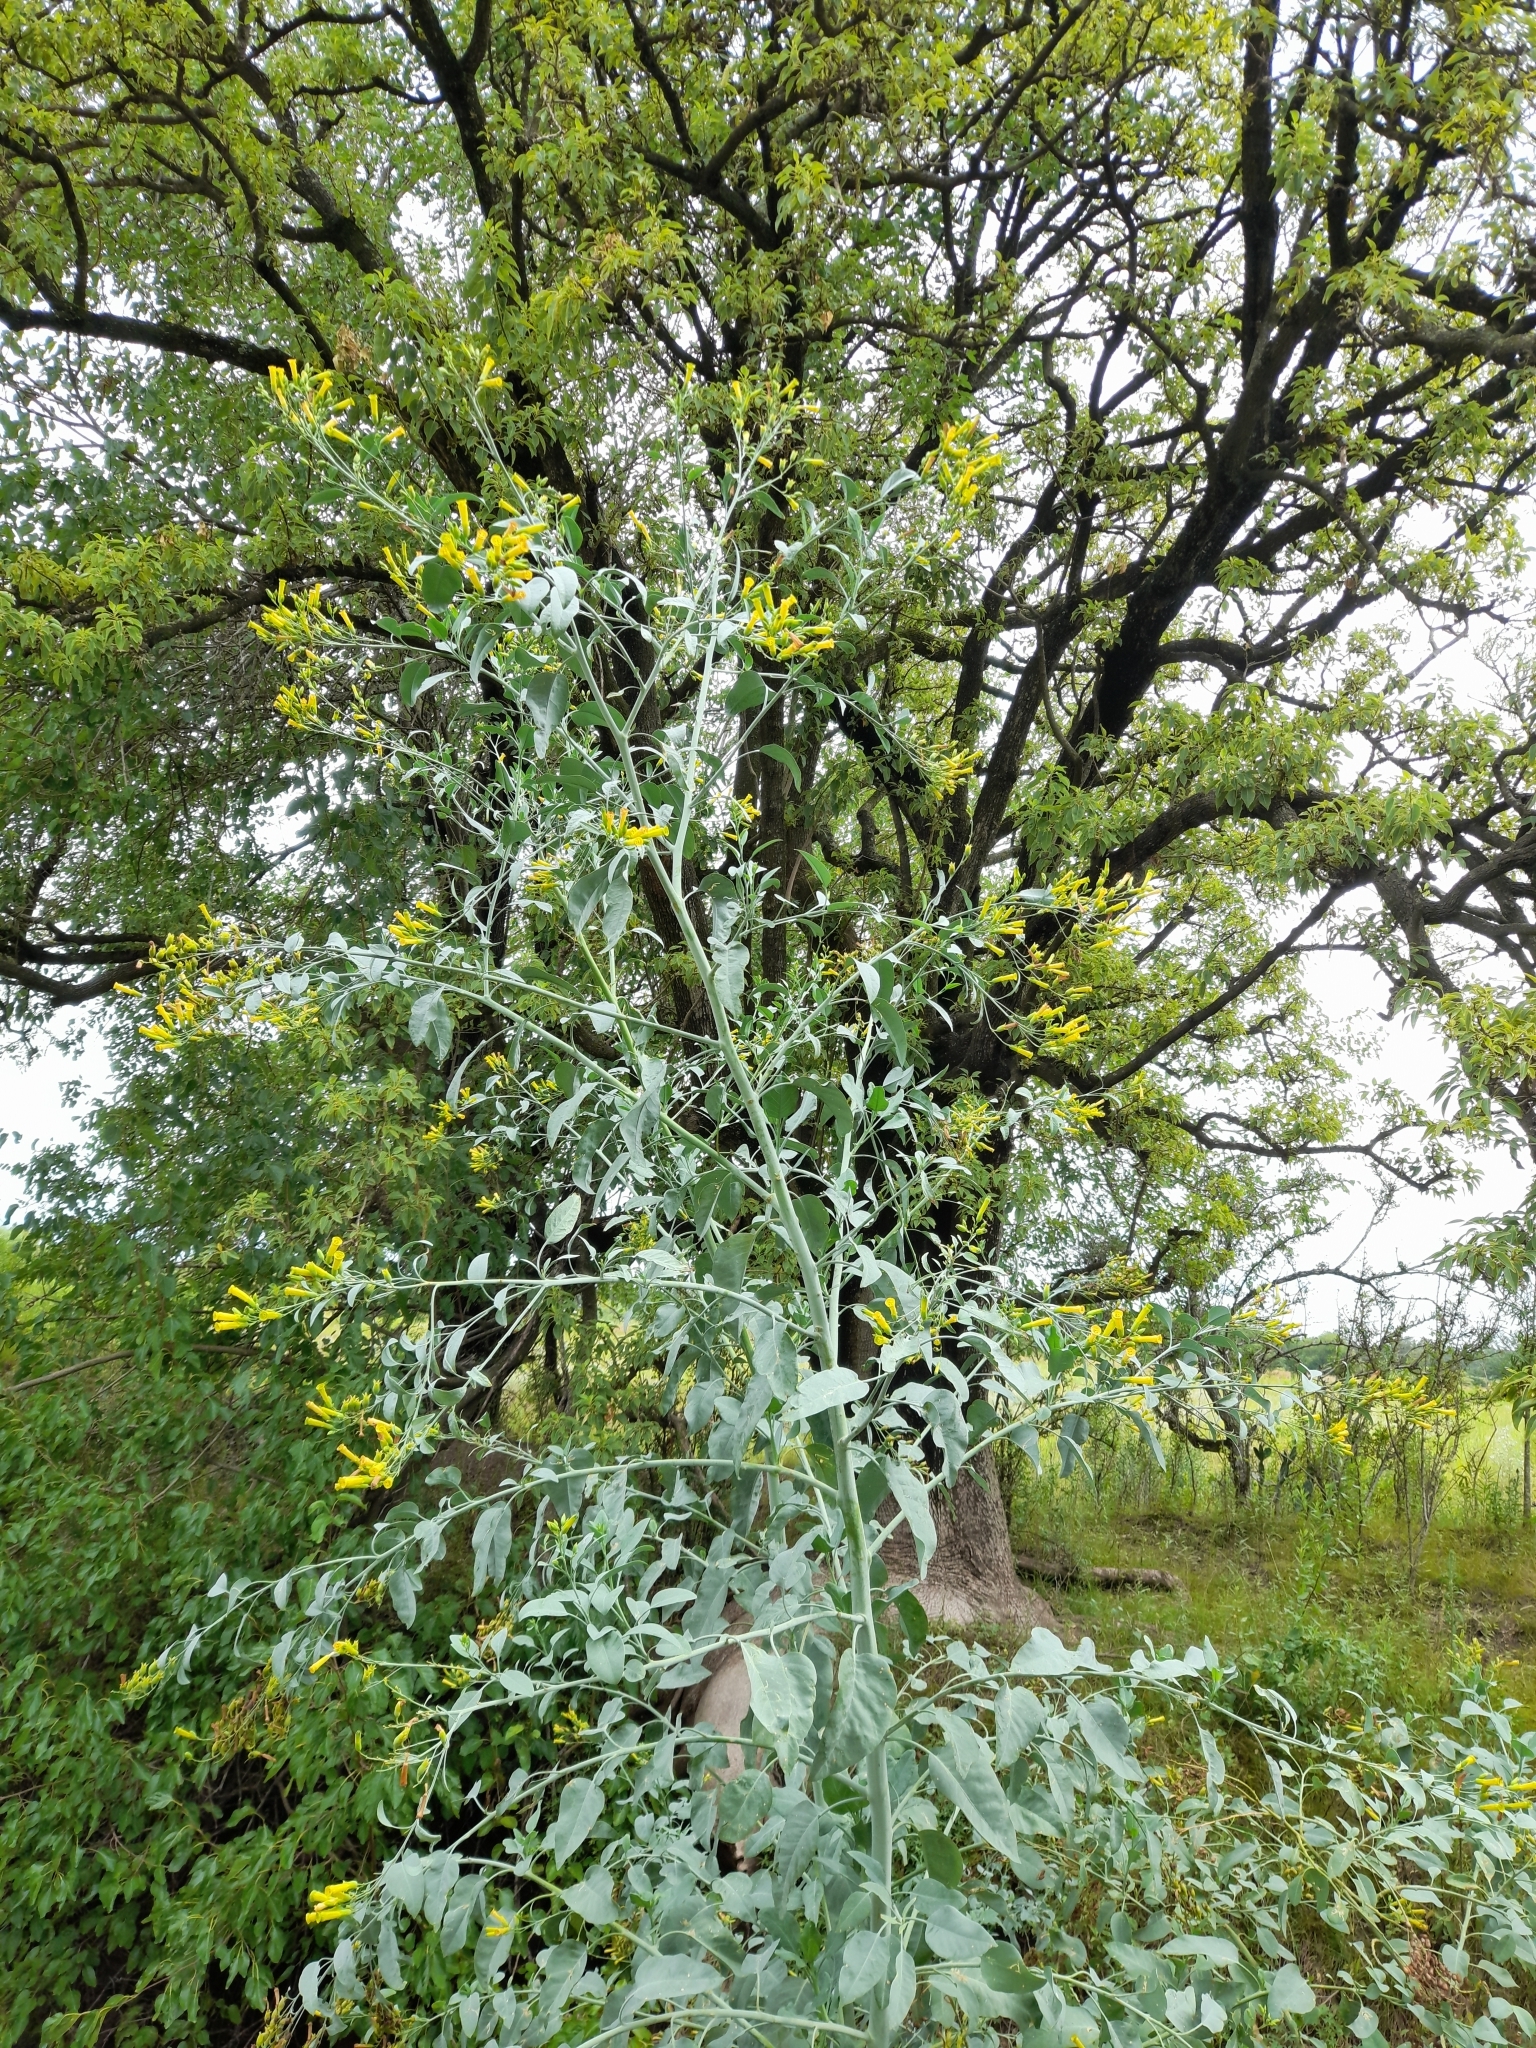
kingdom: Plantae
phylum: Tracheophyta
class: Magnoliopsida
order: Solanales
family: Solanaceae
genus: Nicotiana
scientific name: Nicotiana glauca
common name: Tree tobacco
